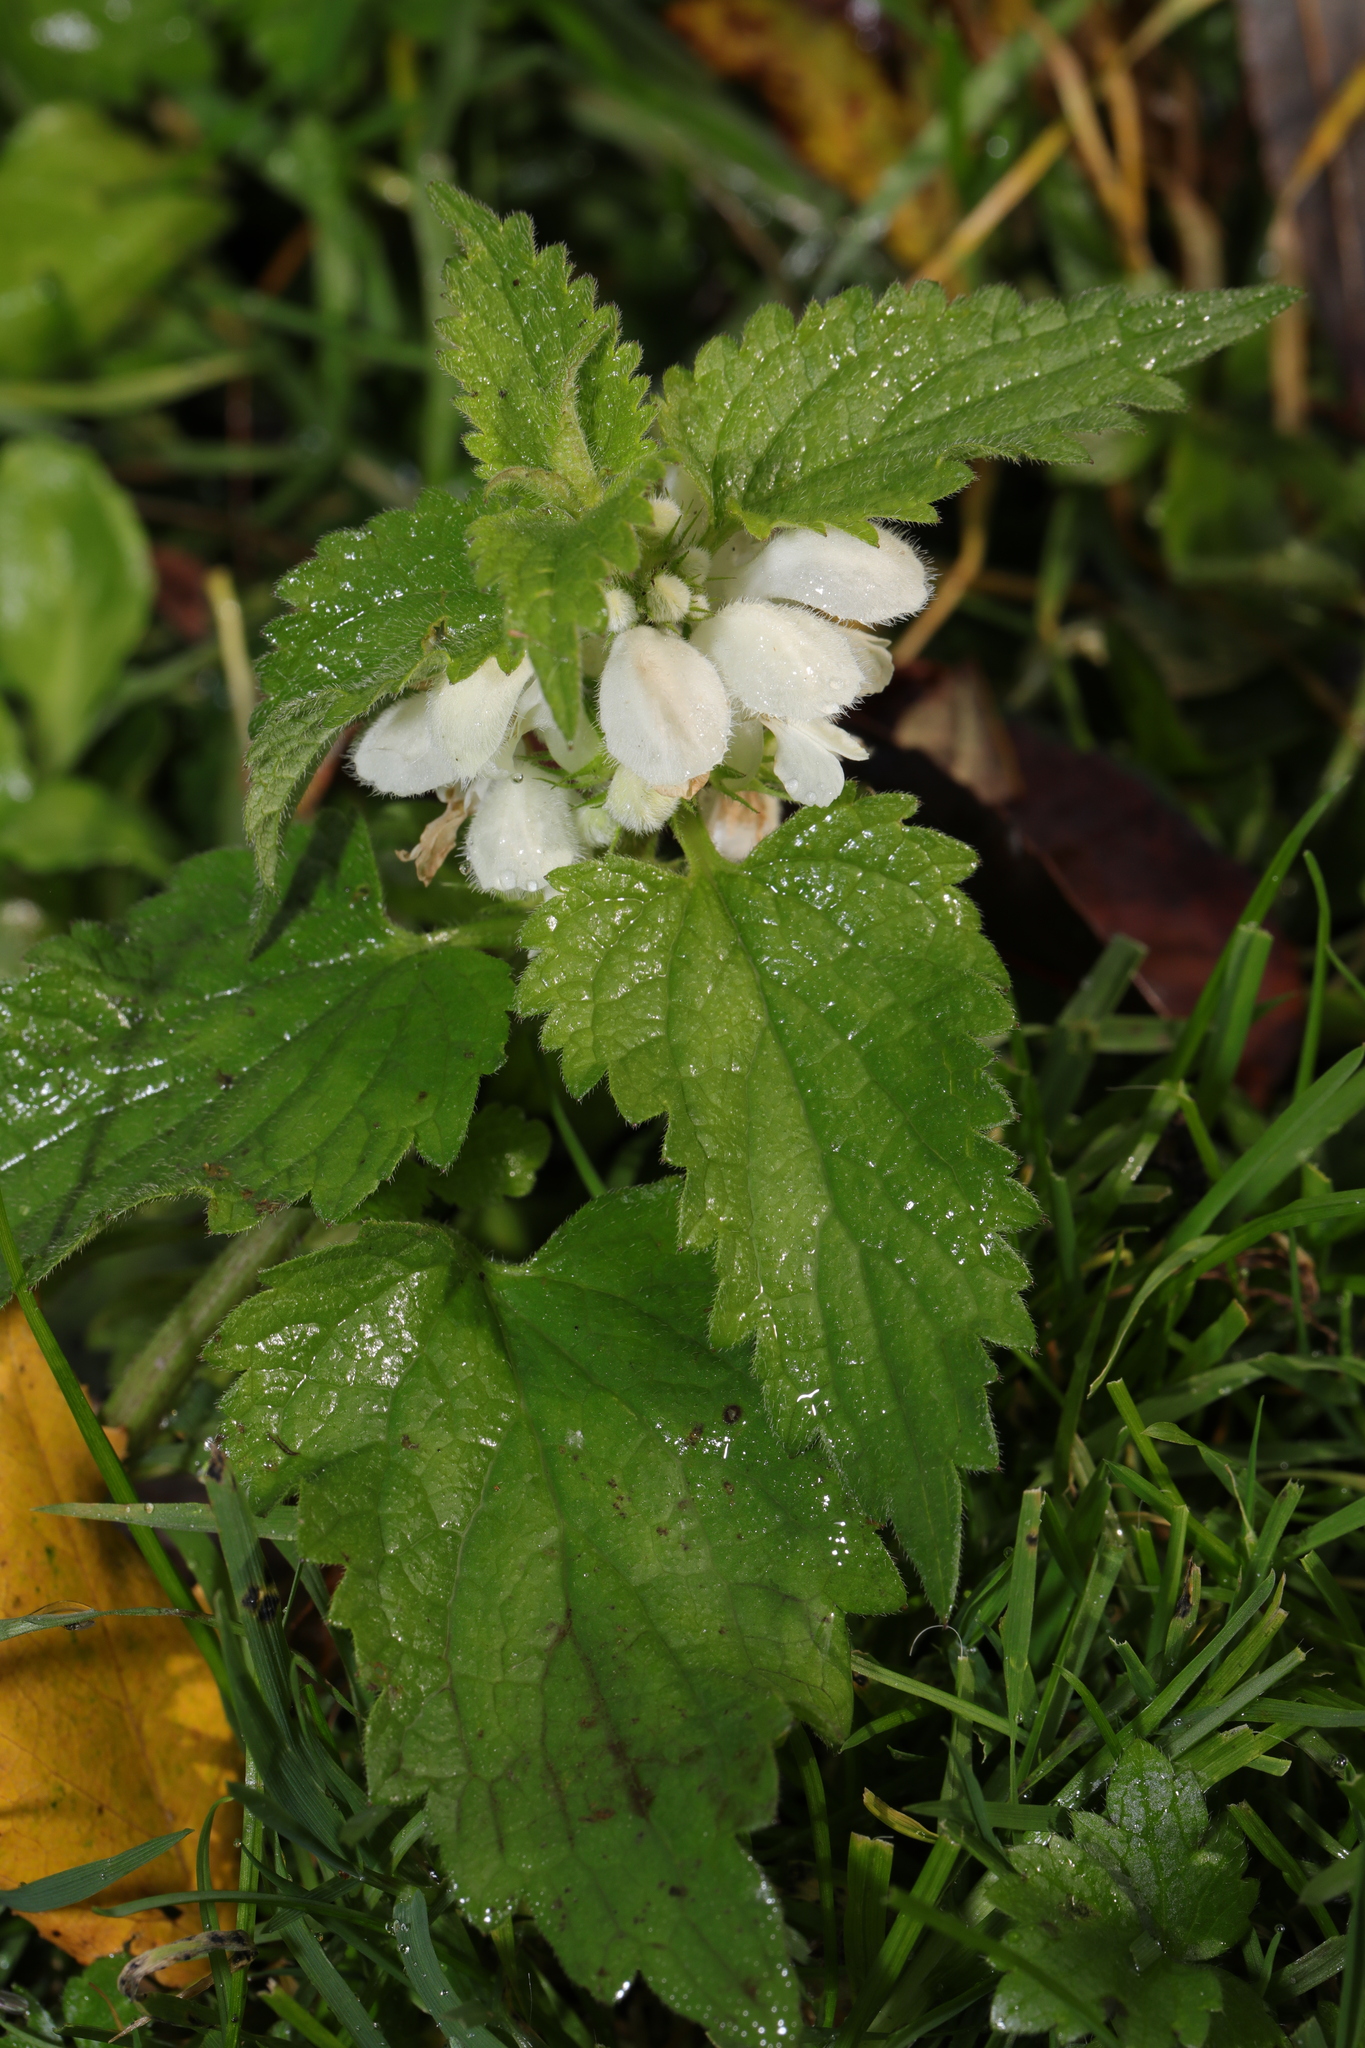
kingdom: Plantae
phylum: Tracheophyta
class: Magnoliopsida
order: Lamiales
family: Lamiaceae
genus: Lamium
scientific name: Lamium album
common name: White dead-nettle
